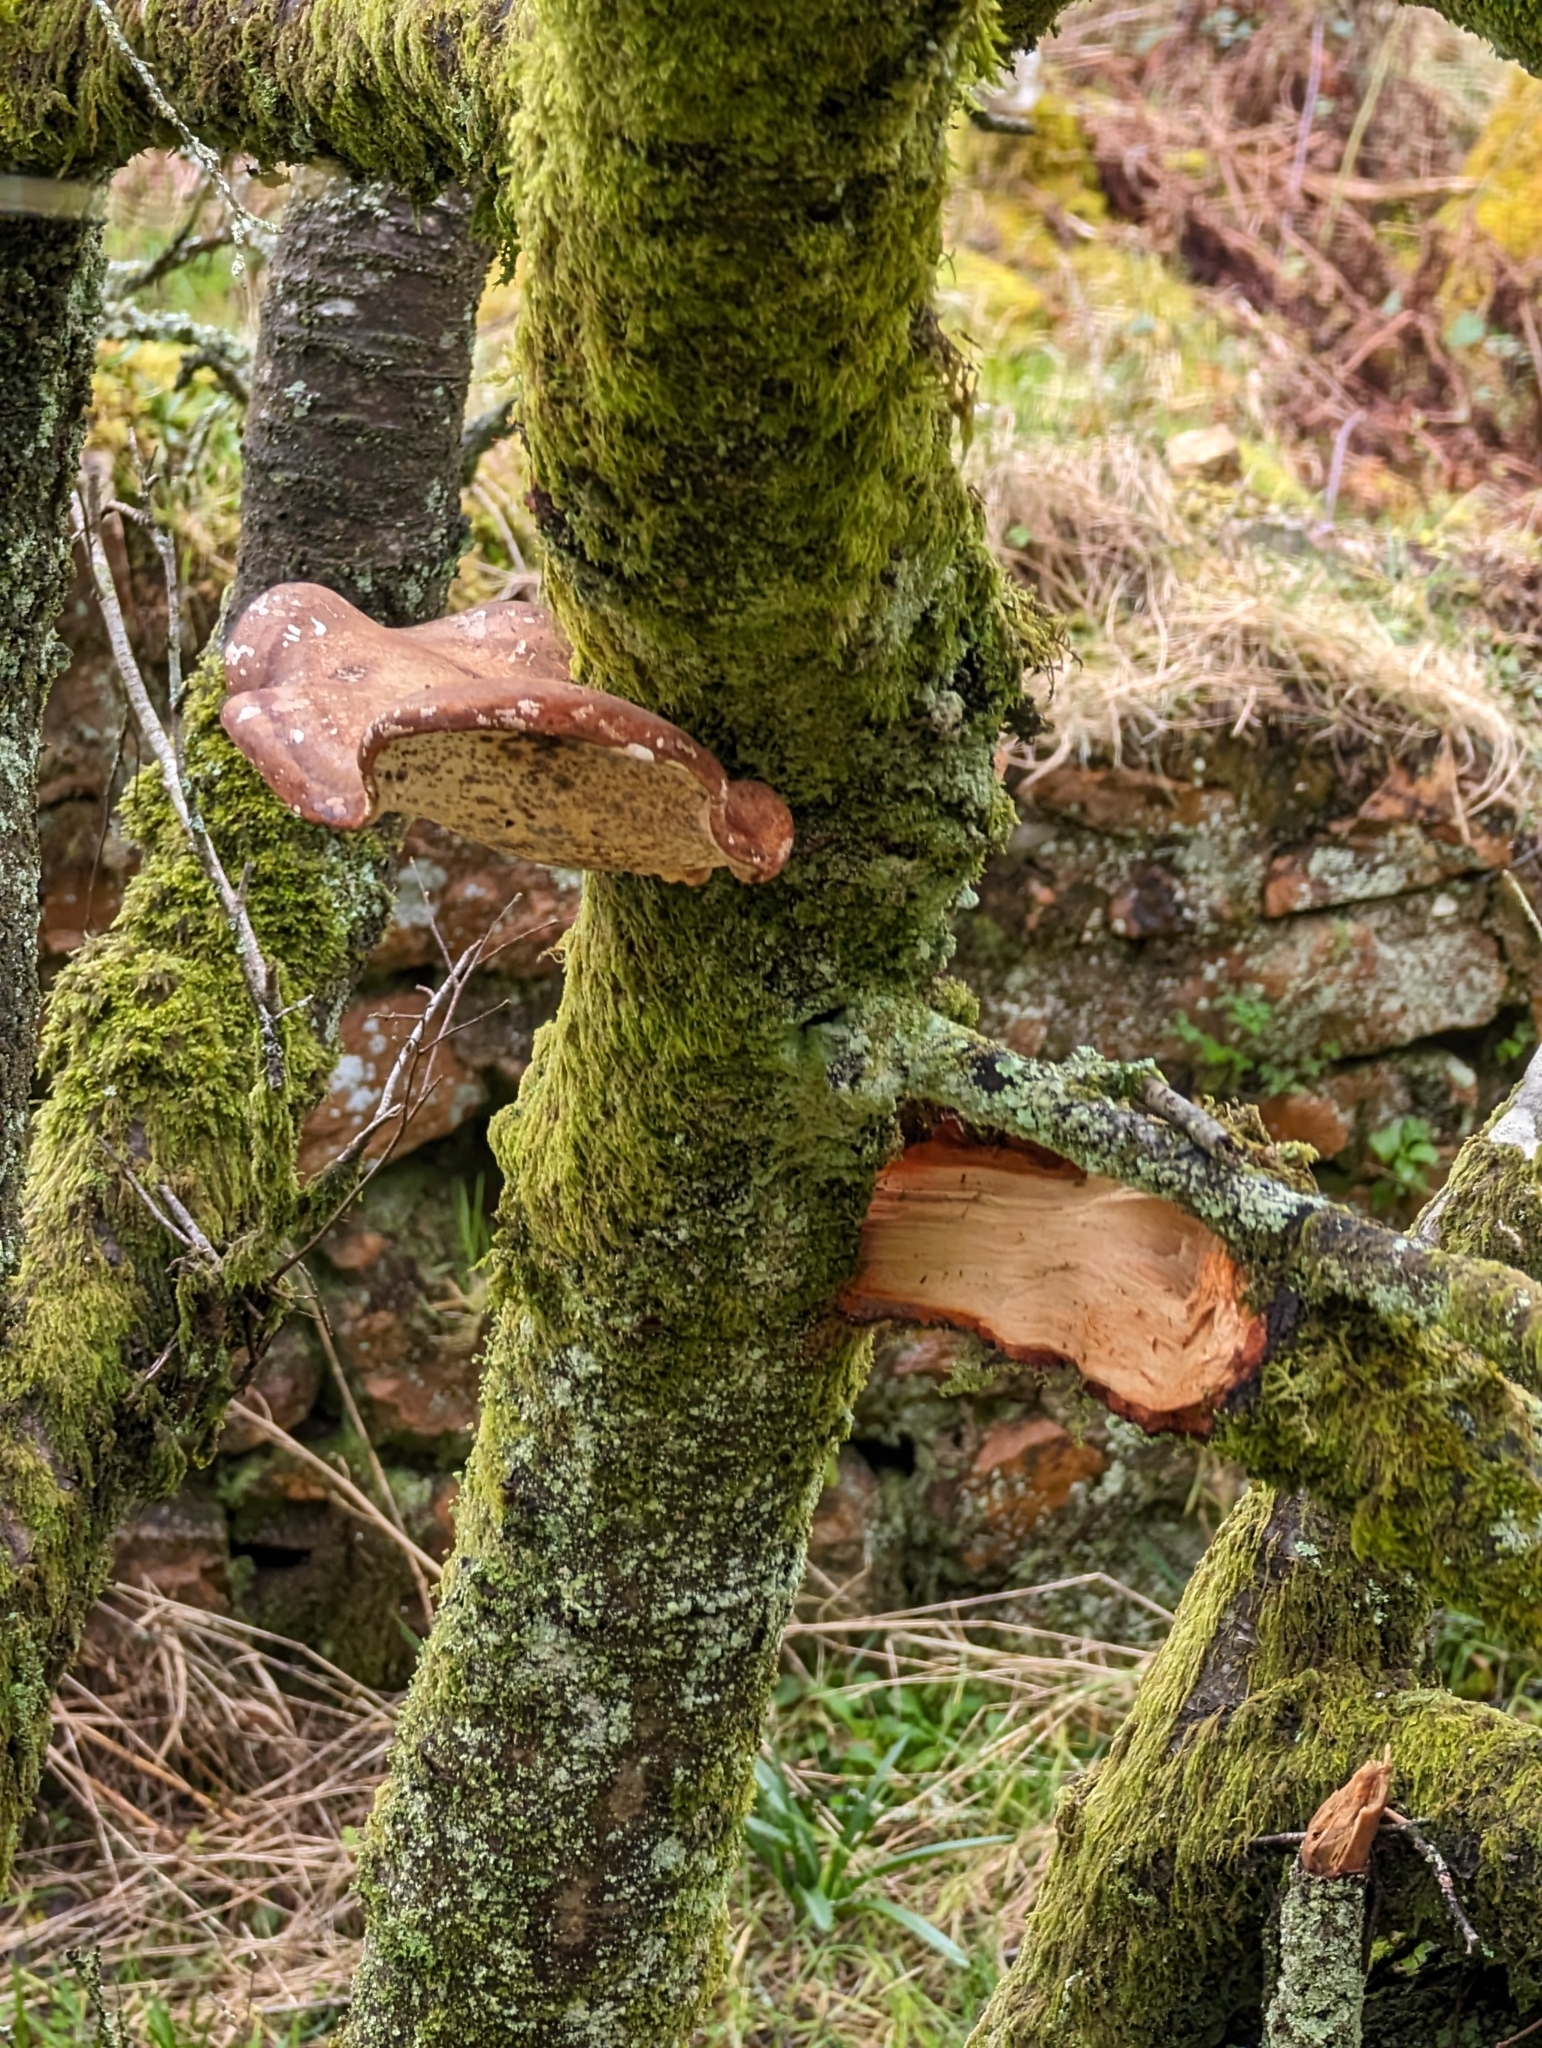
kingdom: Fungi
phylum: Basidiomycota
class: Agaricomycetes
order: Polyporales
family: Fomitopsidaceae
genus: Fomitopsis
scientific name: Fomitopsis betulina
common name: Birch polypore
